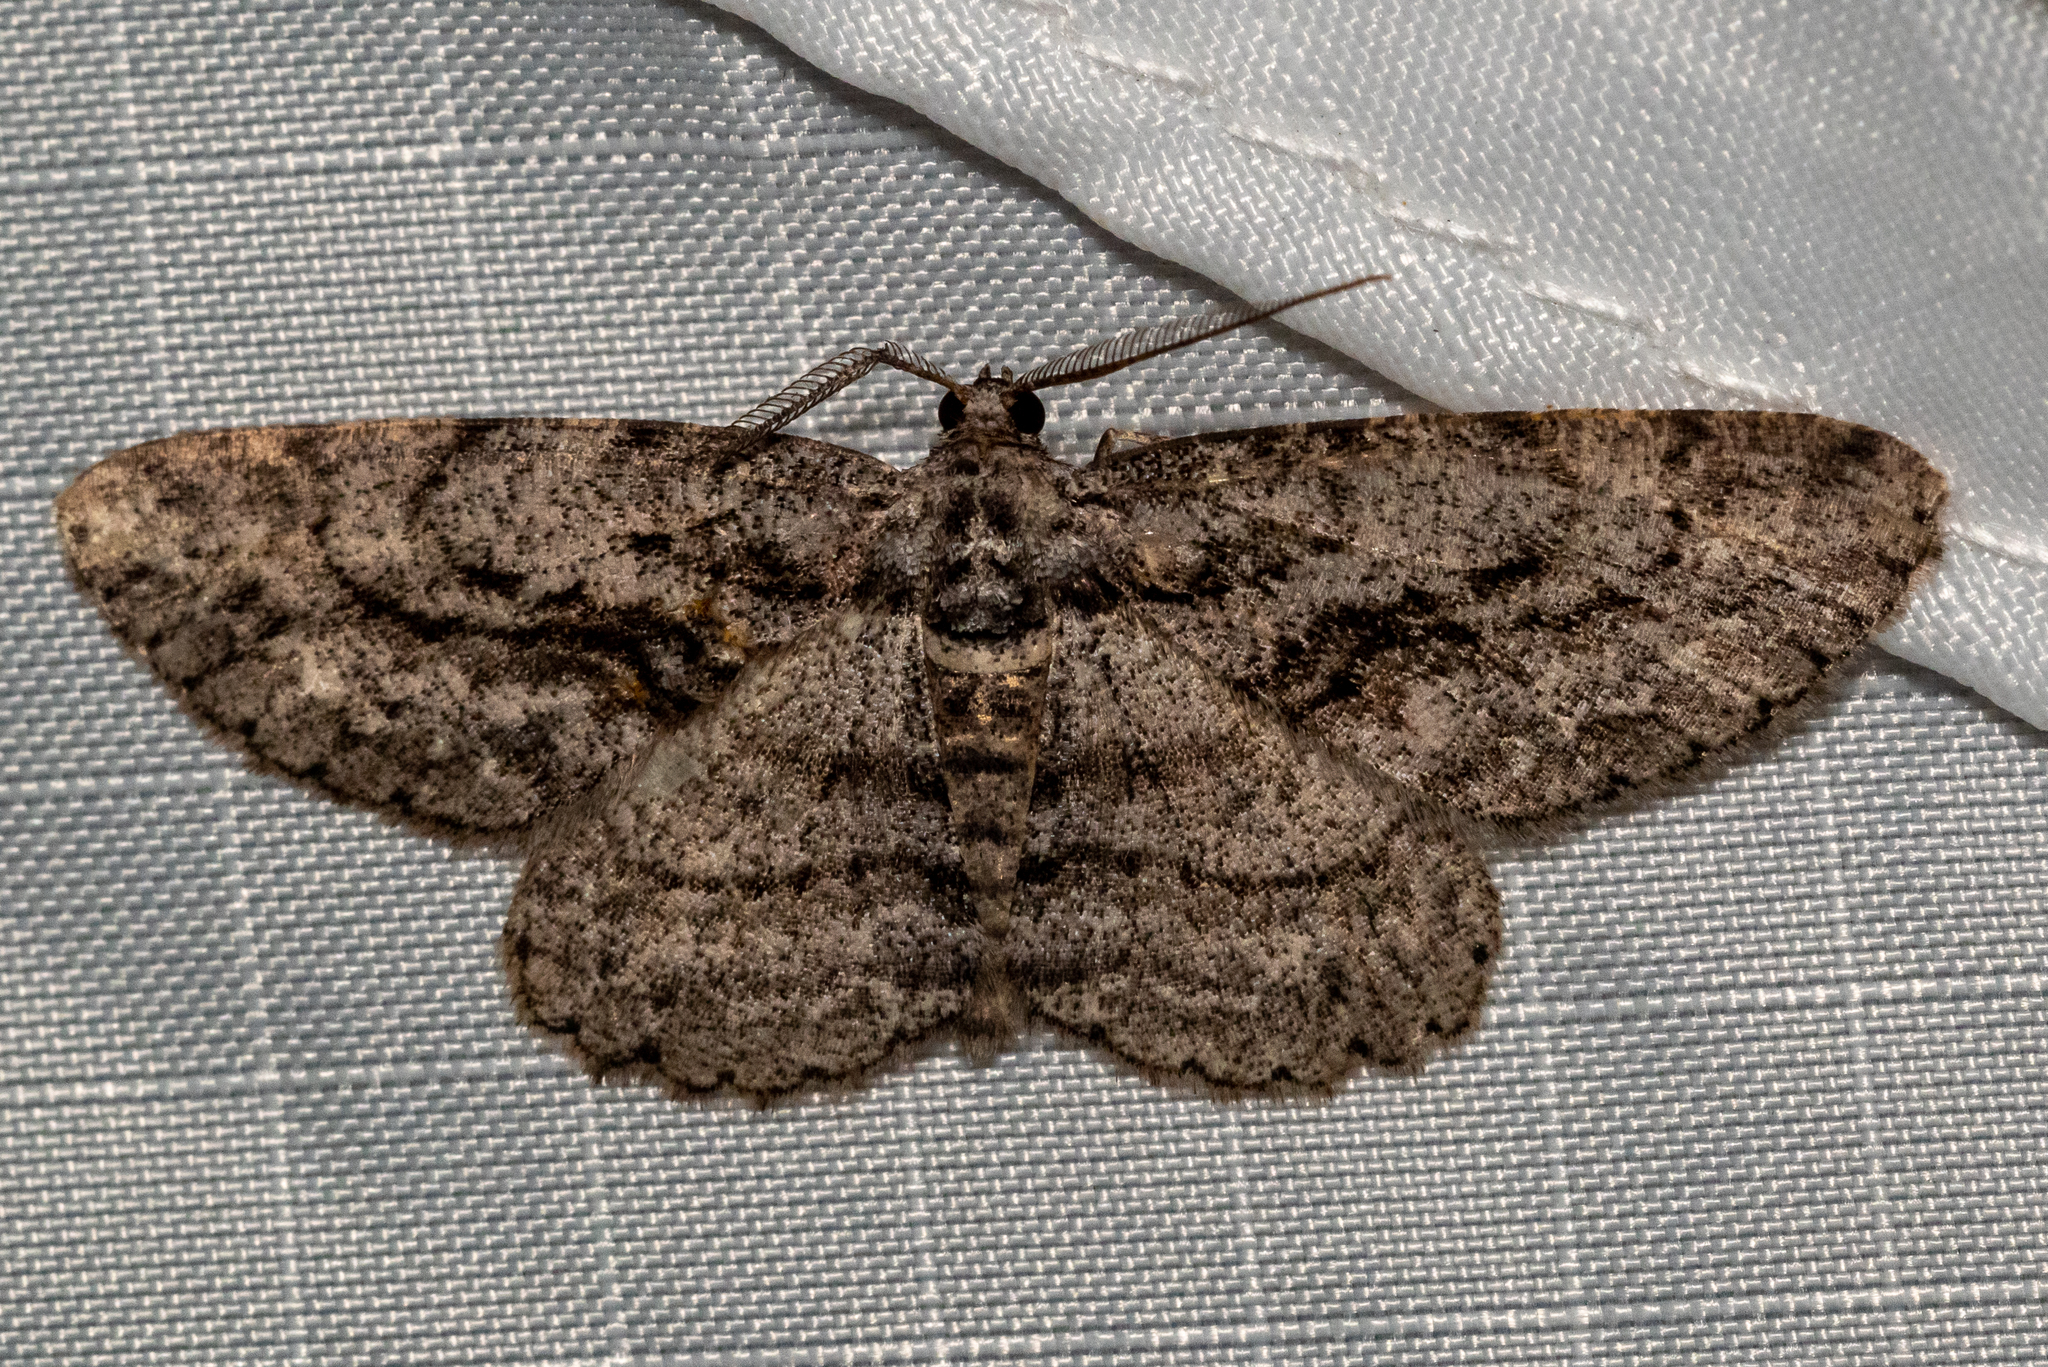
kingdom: Animalia
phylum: Arthropoda
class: Insecta
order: Lepidoptera
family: Geometridae
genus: Anavitrinella
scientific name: Anavitrinella pampinaria
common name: Common gray
